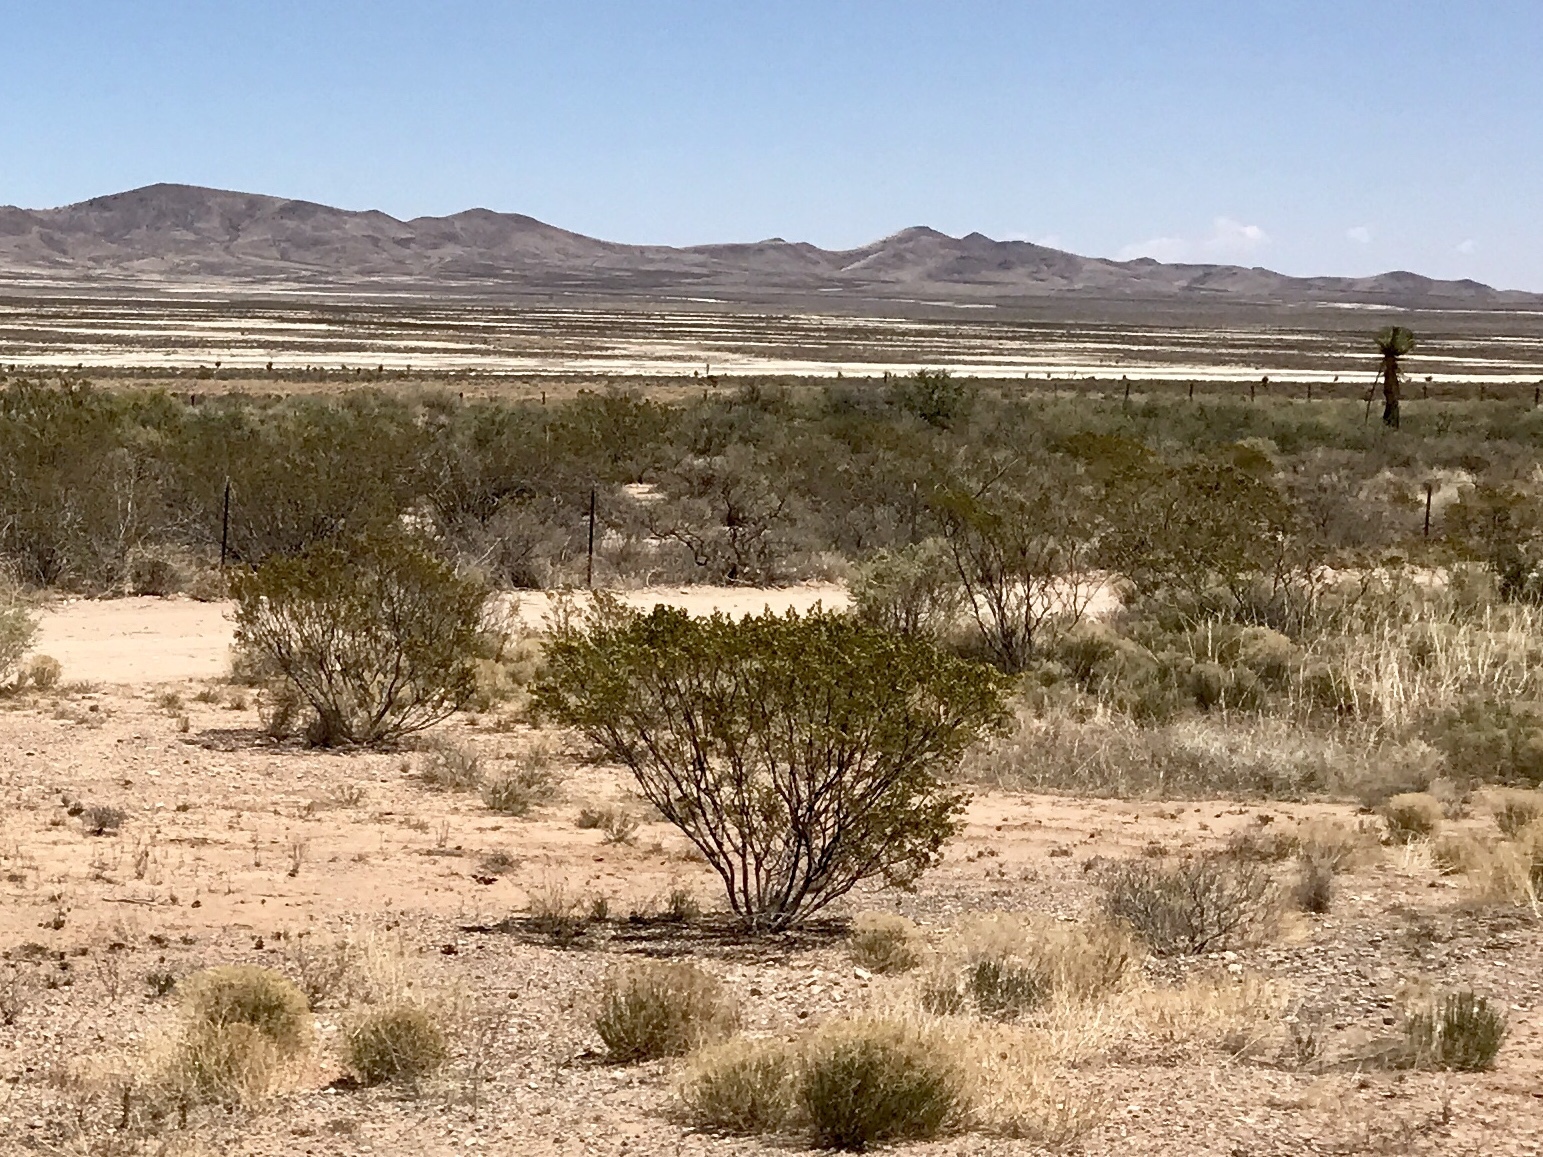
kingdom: Plantae
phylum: Tracheophyta
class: Magnoliopsida
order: Zygophyllales
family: Zygophyllaceae
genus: Larrea
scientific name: Larrea tridentata
